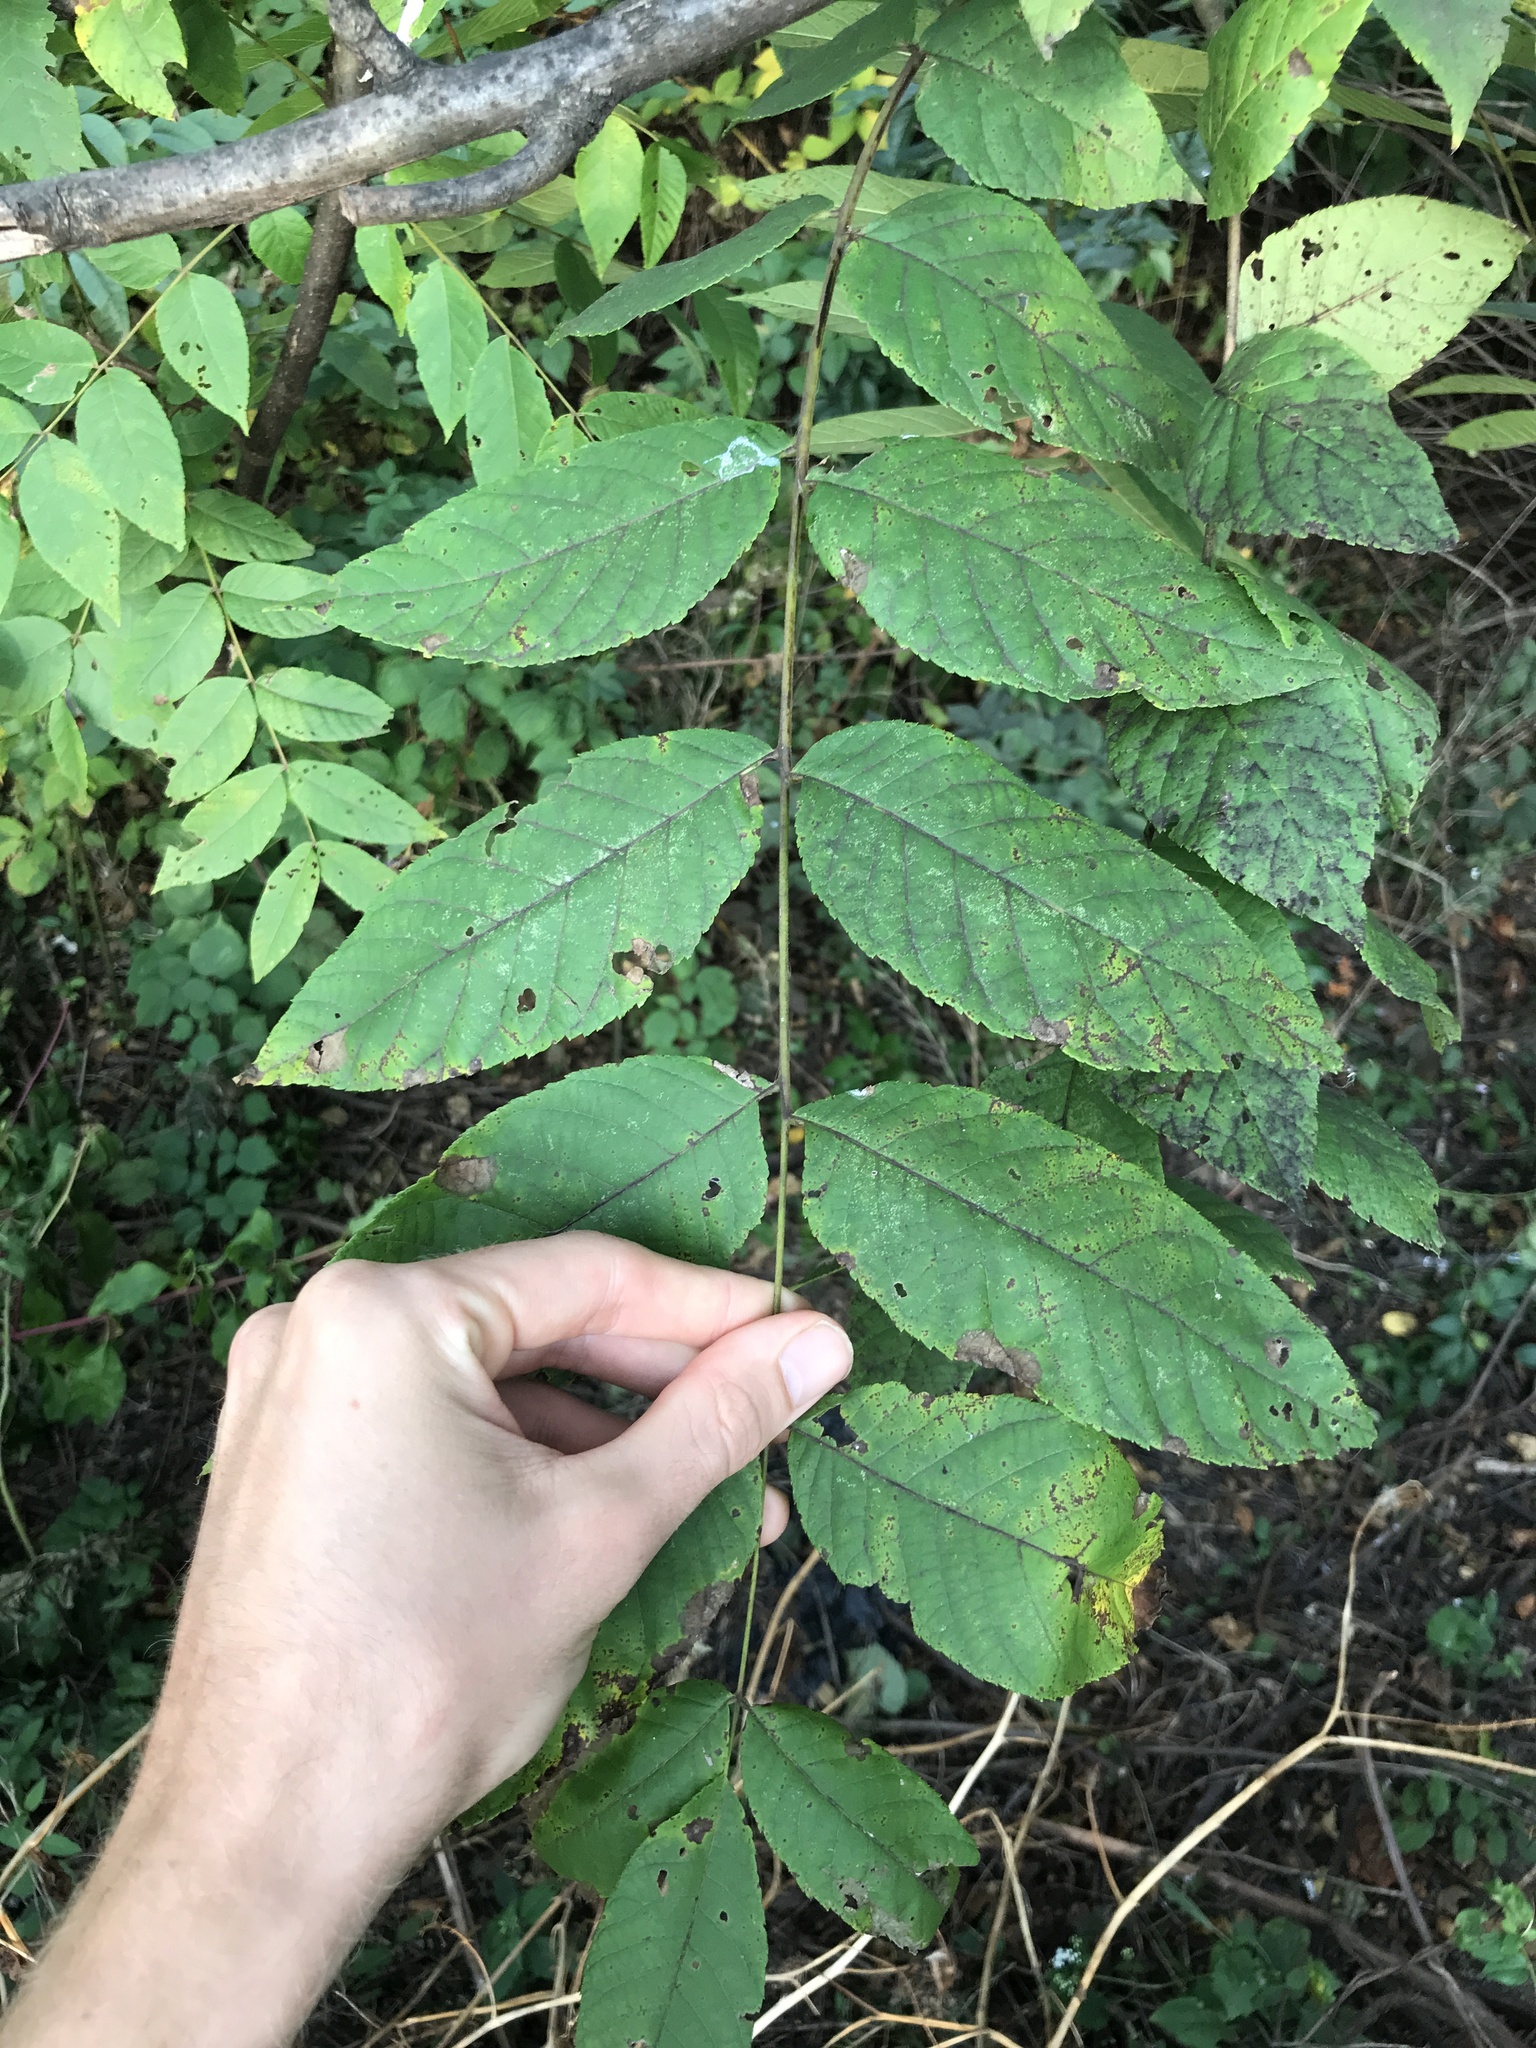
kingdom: Plantae
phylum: Tracheophyta
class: Magnoliopsida
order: Fagales
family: Juglandaceae
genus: Juglans
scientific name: Juglans nigra
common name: Black walnut
